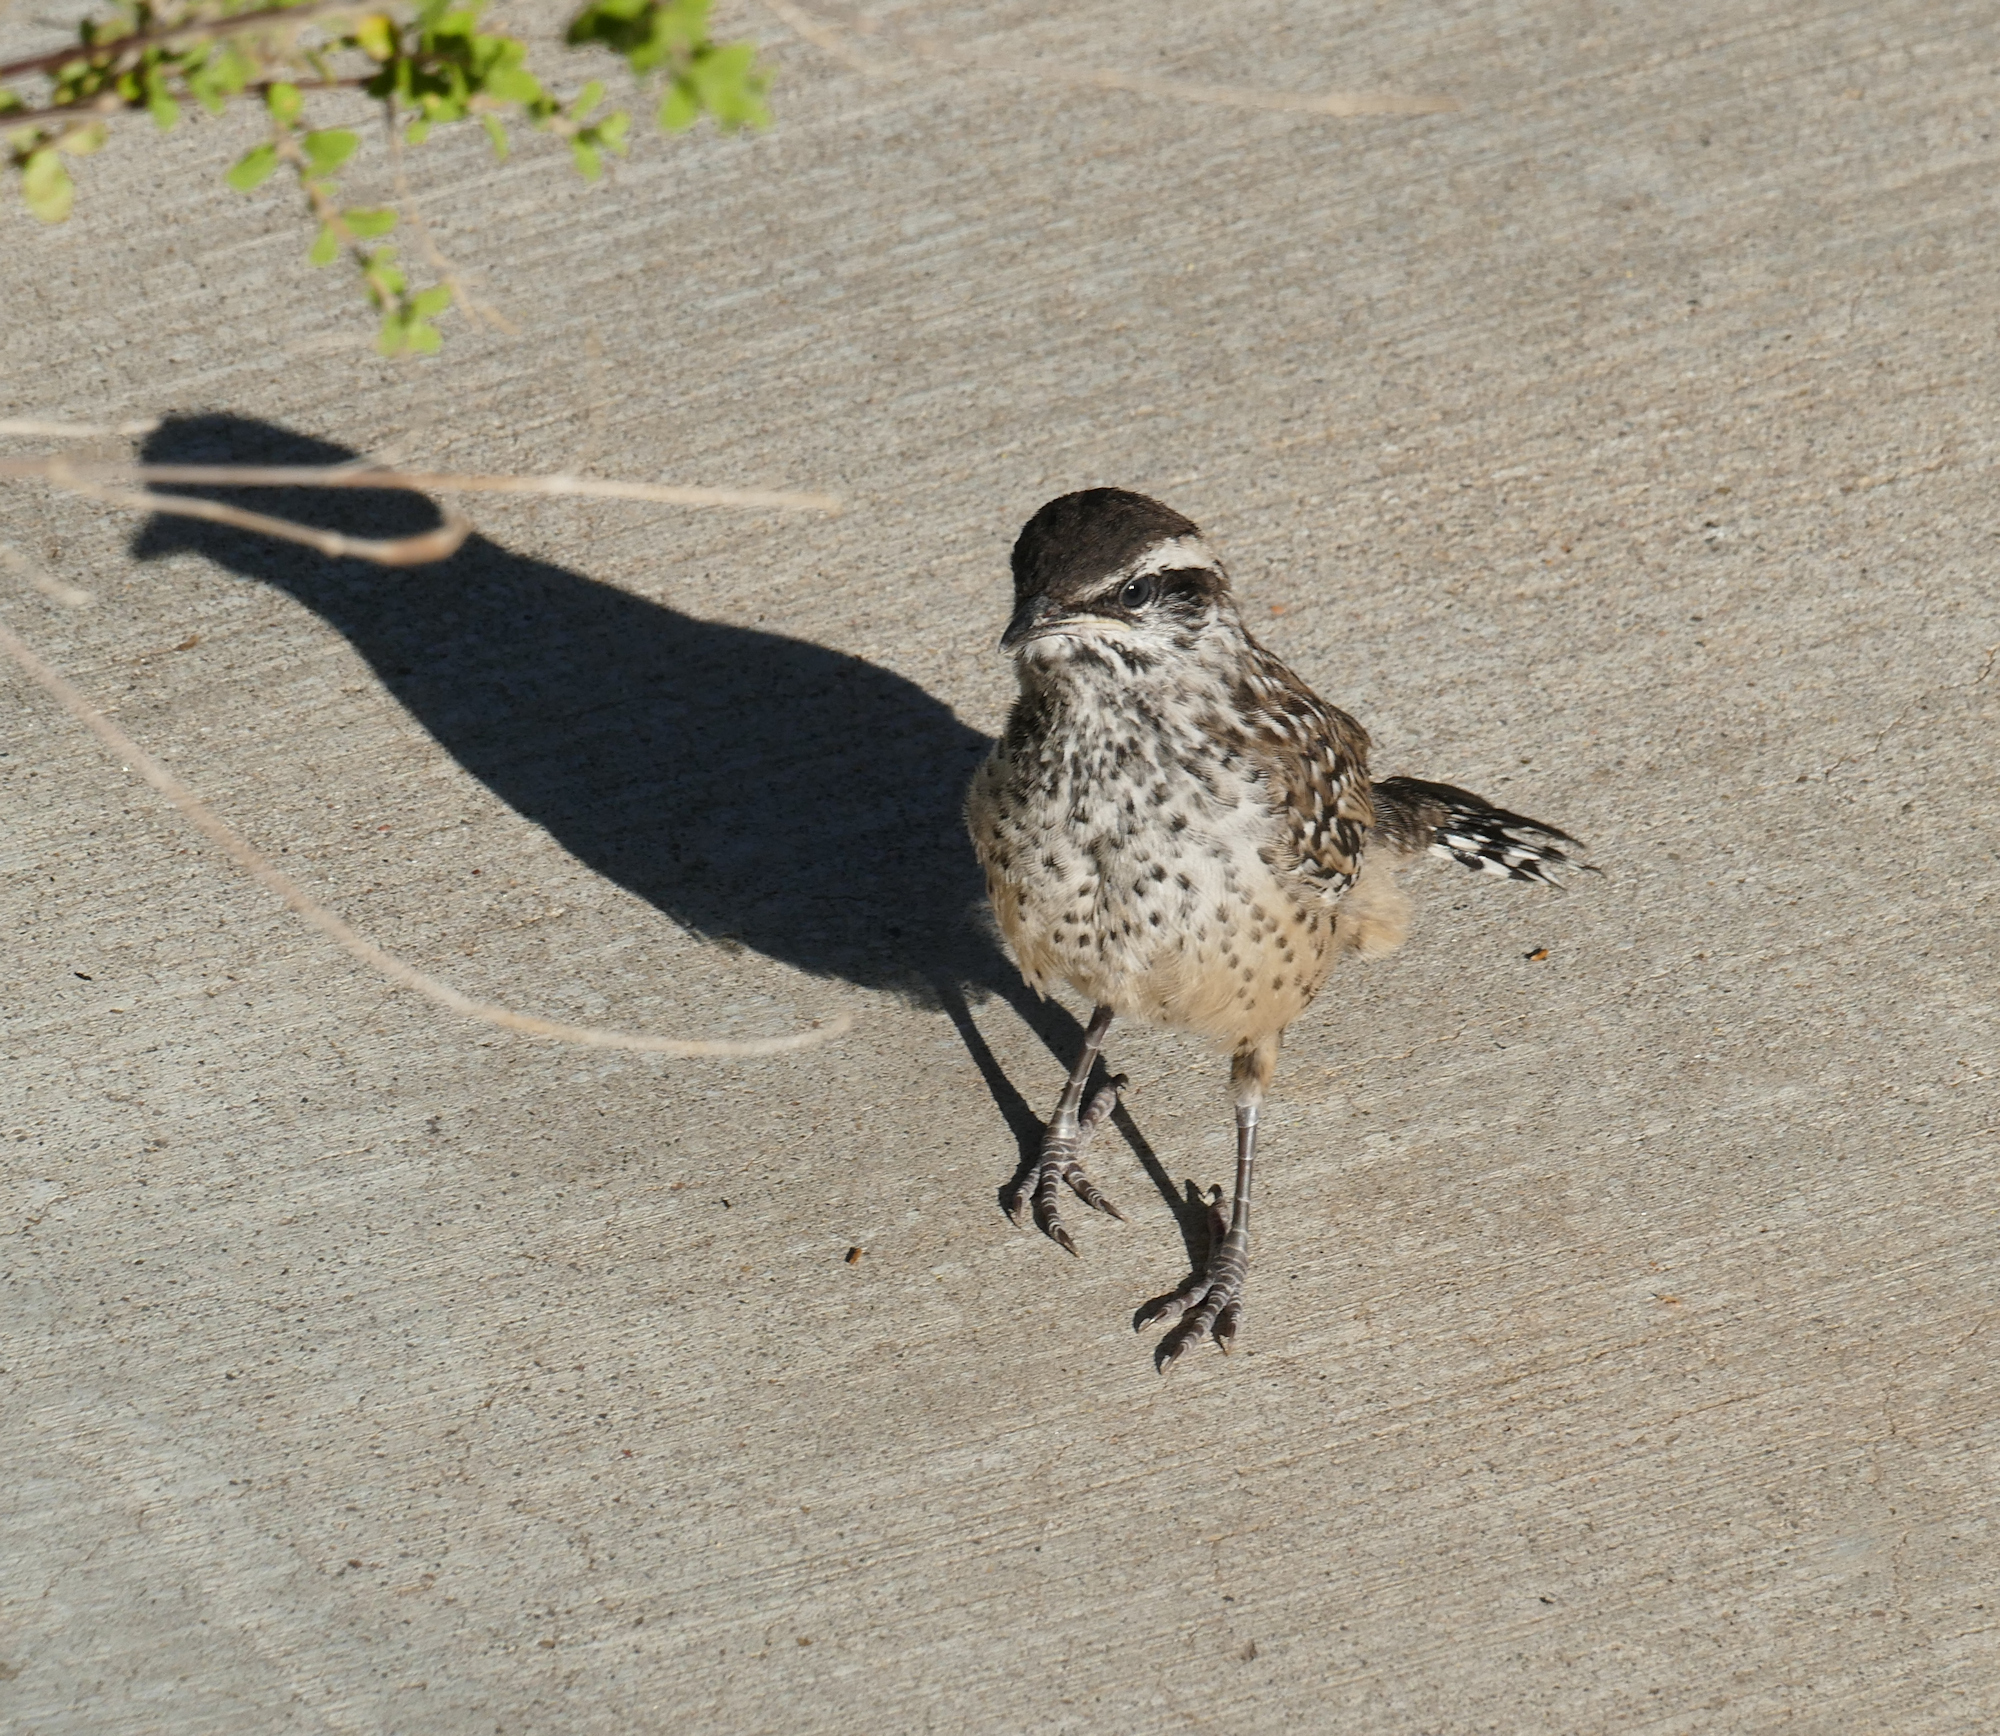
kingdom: Animalia
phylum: Chordata
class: Aves
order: Passeriformes
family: Troglodytidae
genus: Campylorhynchus
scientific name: Campylorhynchus brunneicapillus
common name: Cactus wren
